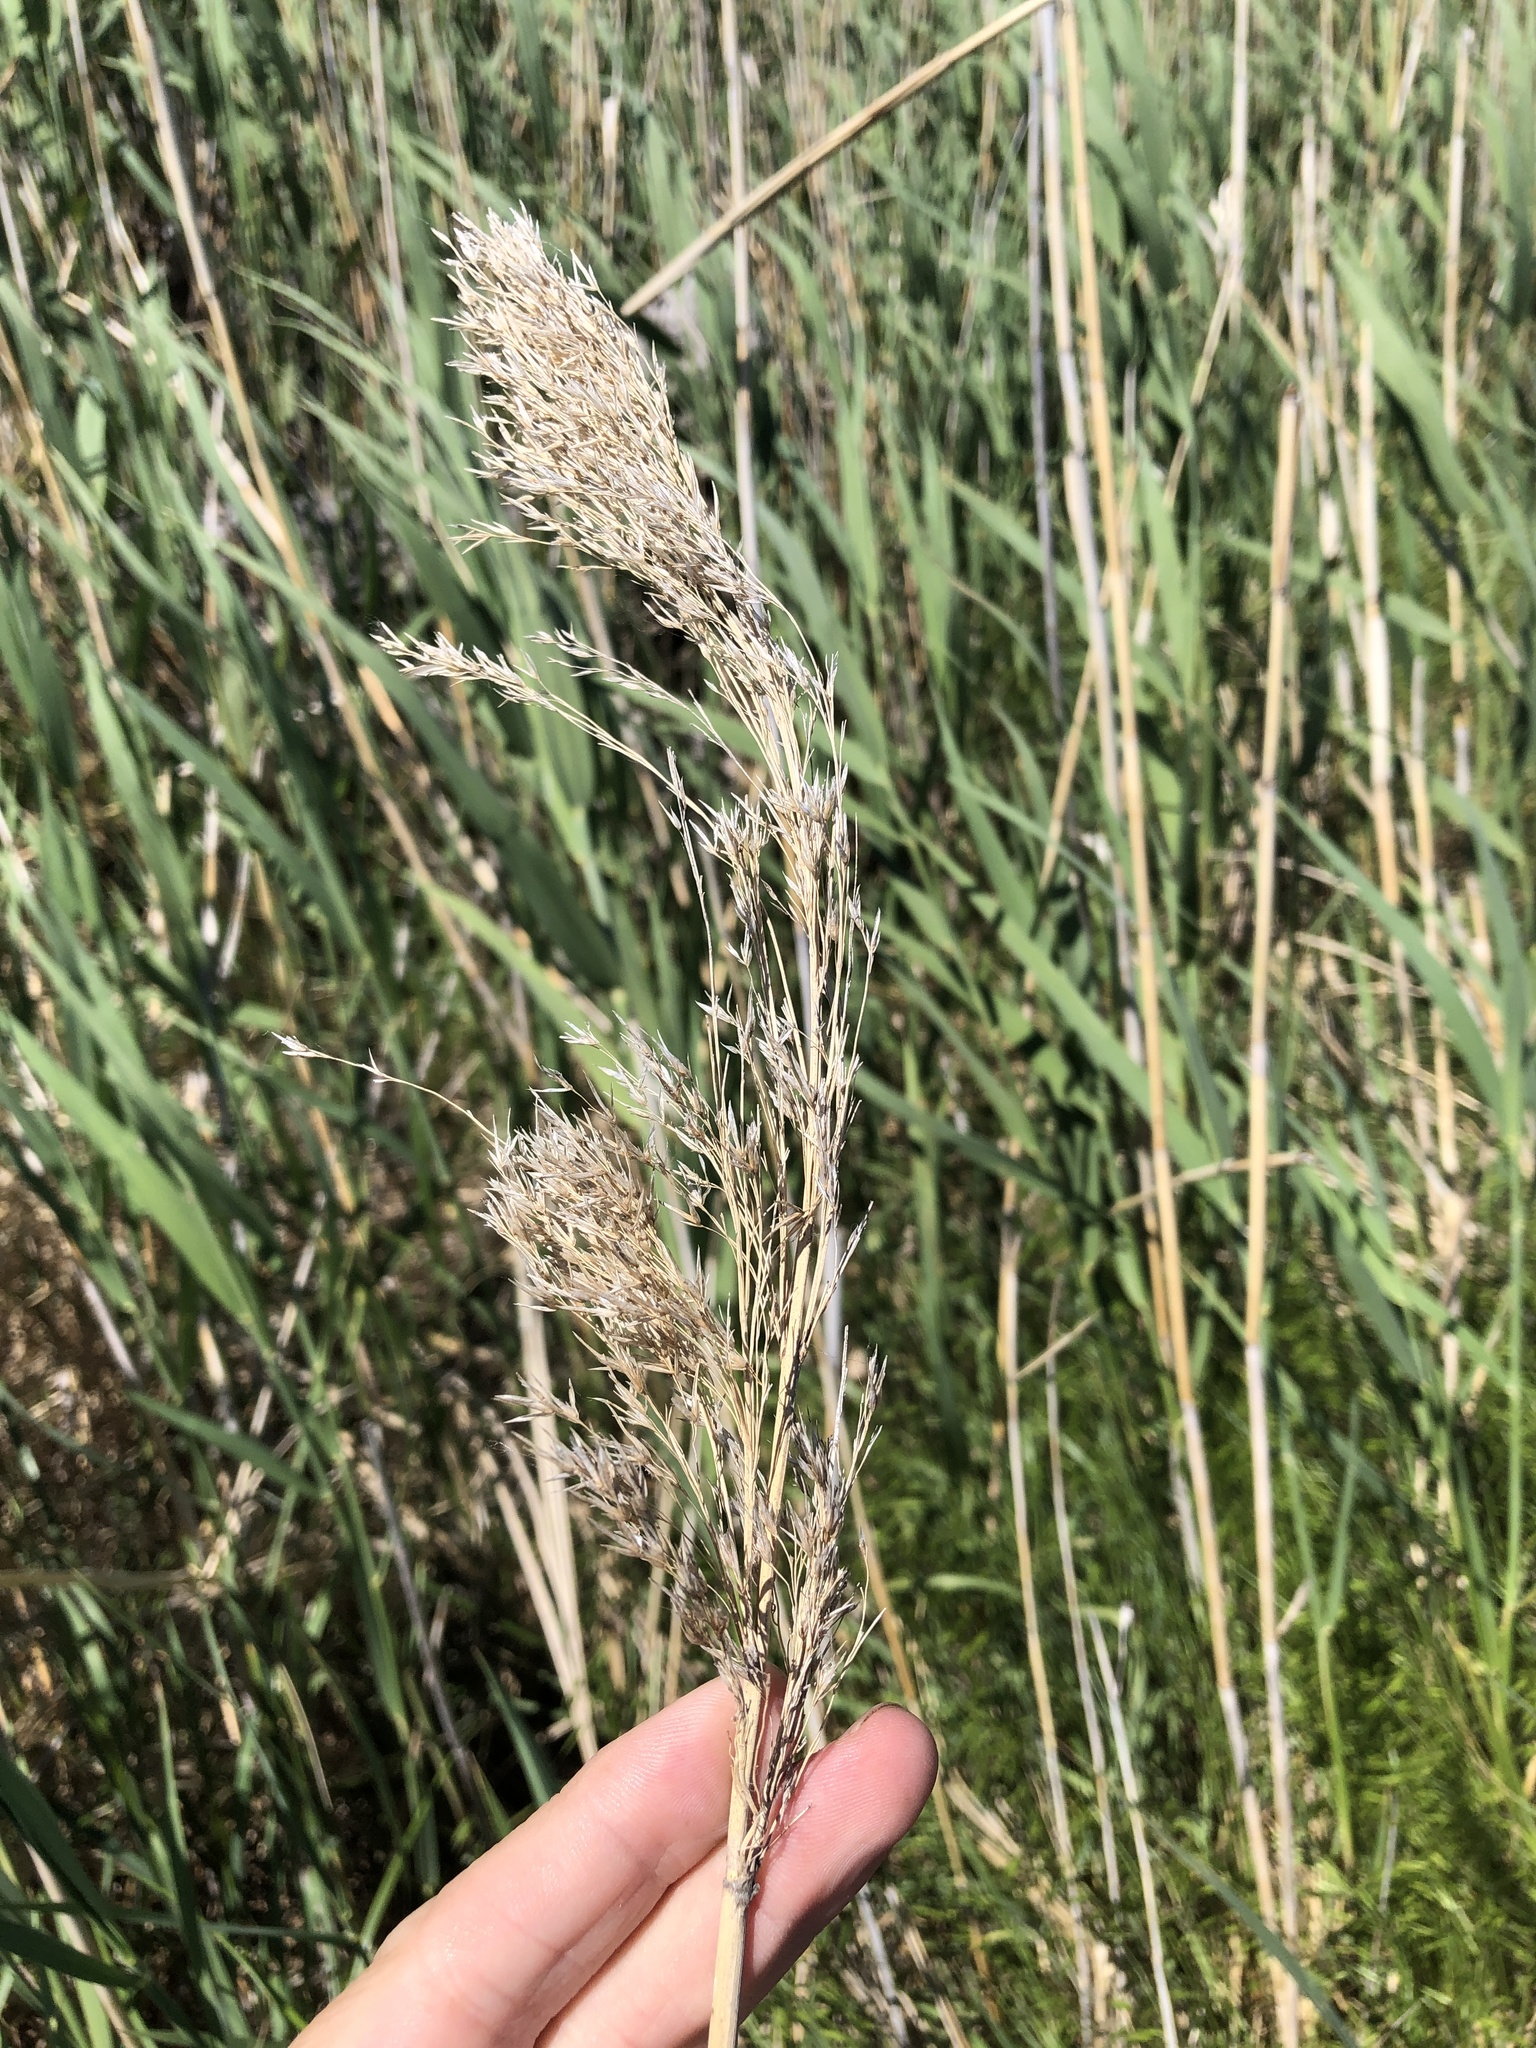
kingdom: Plantae
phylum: Tracheophyta
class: Liliopsida
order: Poales
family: Poaceae
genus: Phragmites
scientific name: Phragmites australis
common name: Common reed
